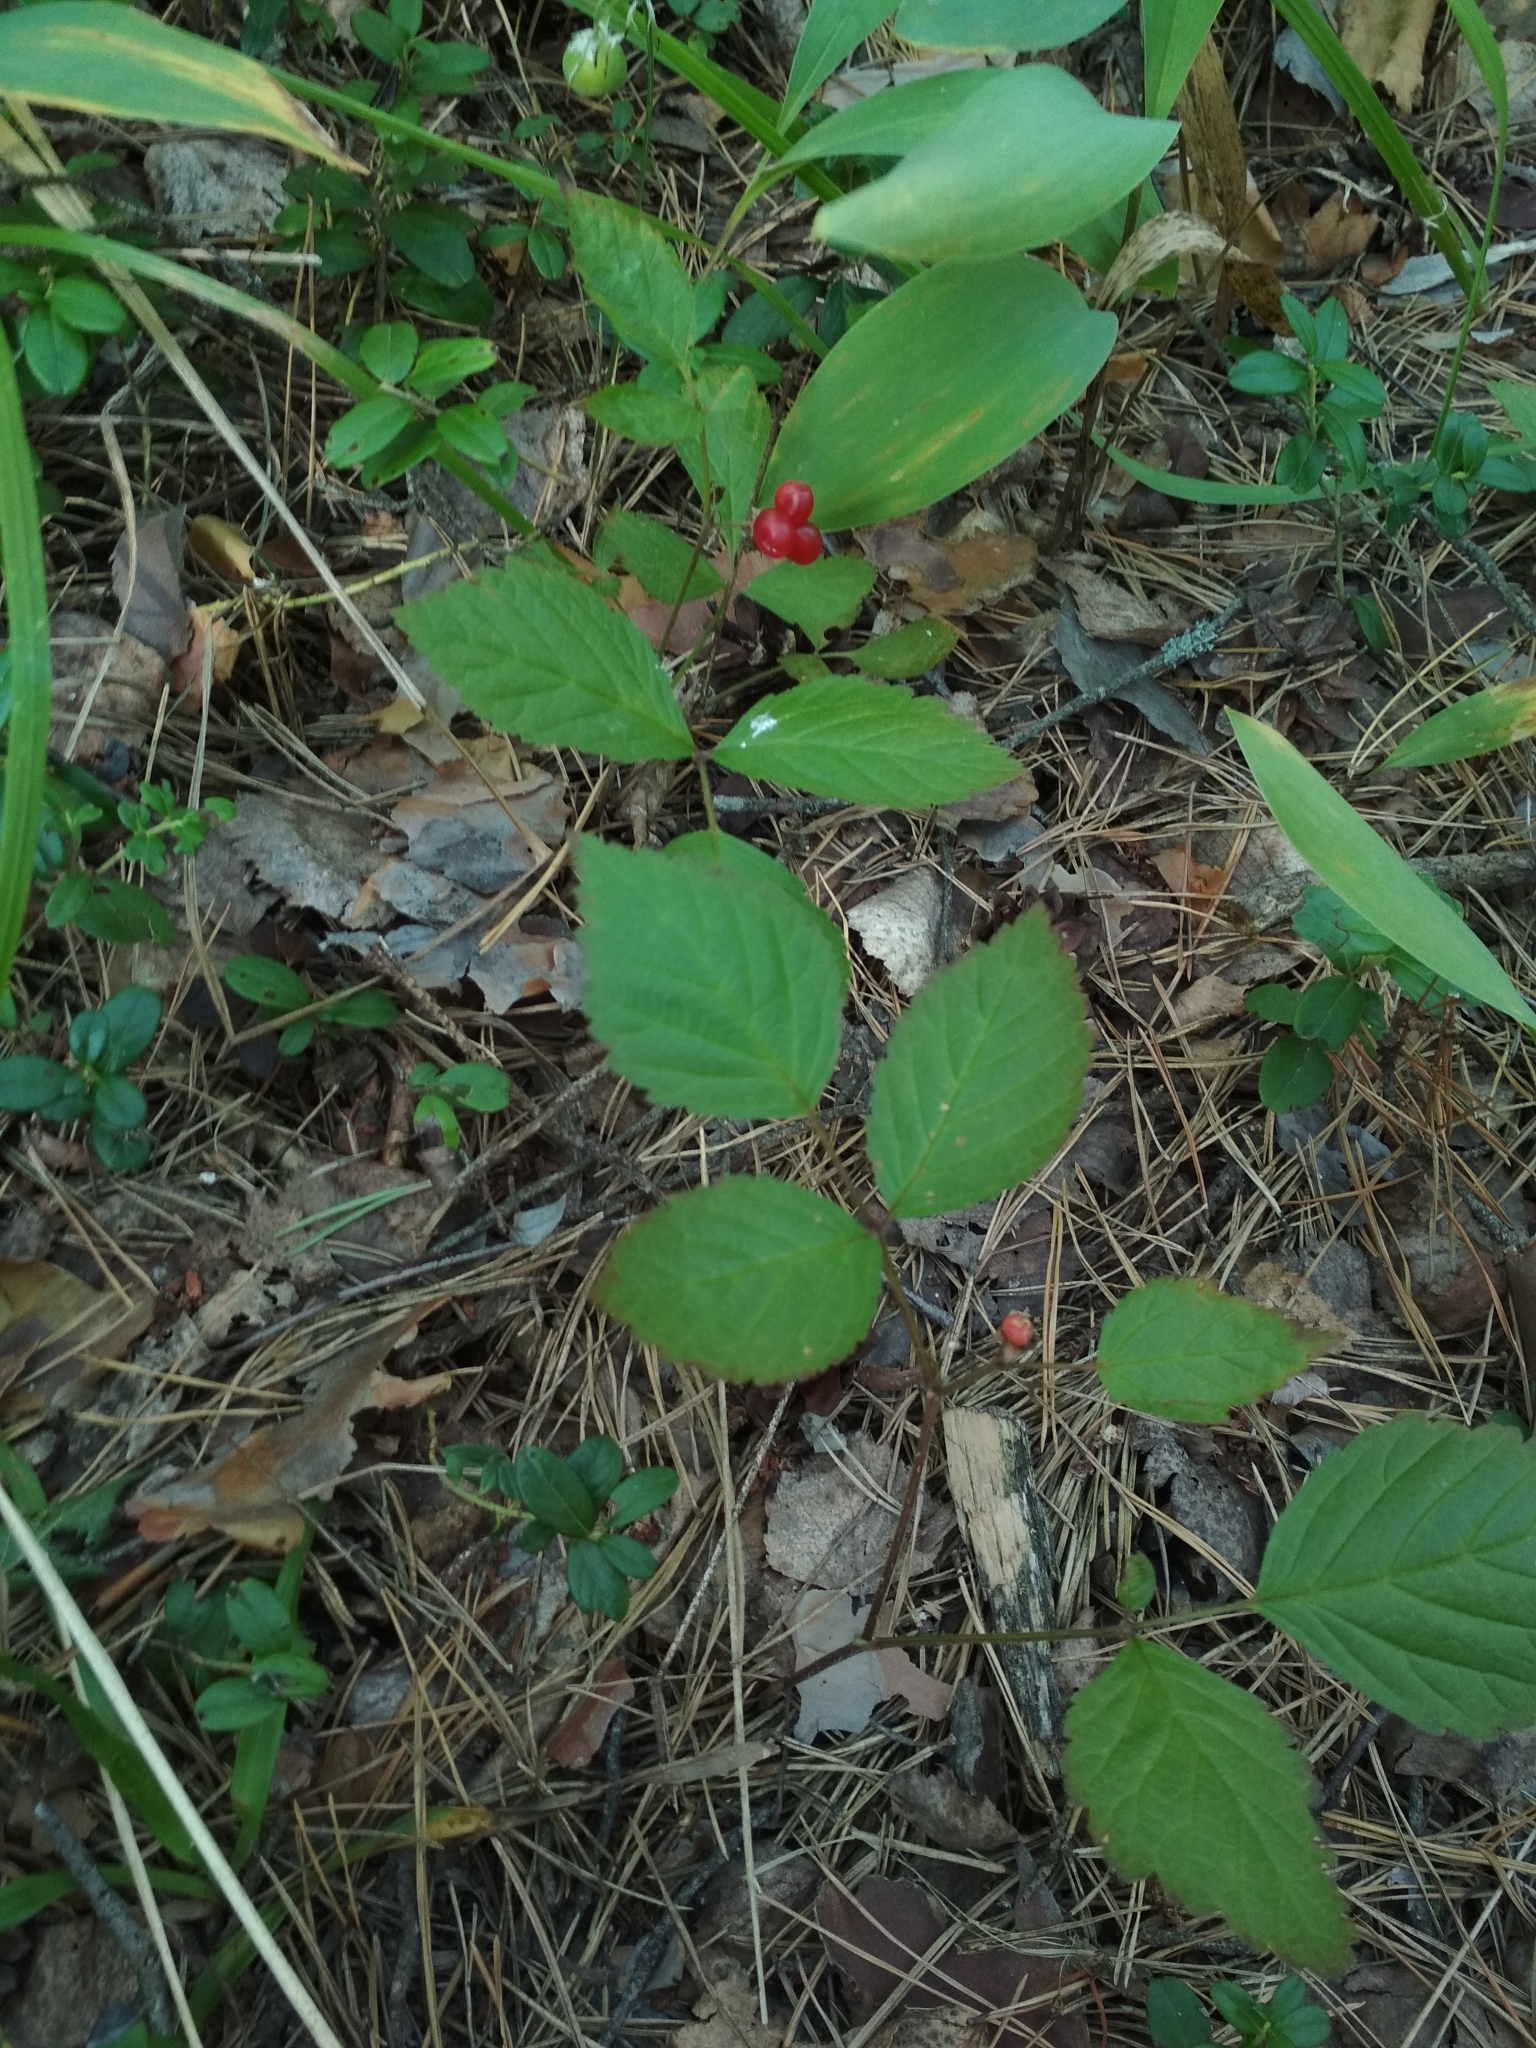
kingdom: Plantae
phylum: Tracheophyta
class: Magnoliopsida
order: Rosales
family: Rosaceae
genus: Rubus
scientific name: Rubus saxatilis
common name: Stone bramble
